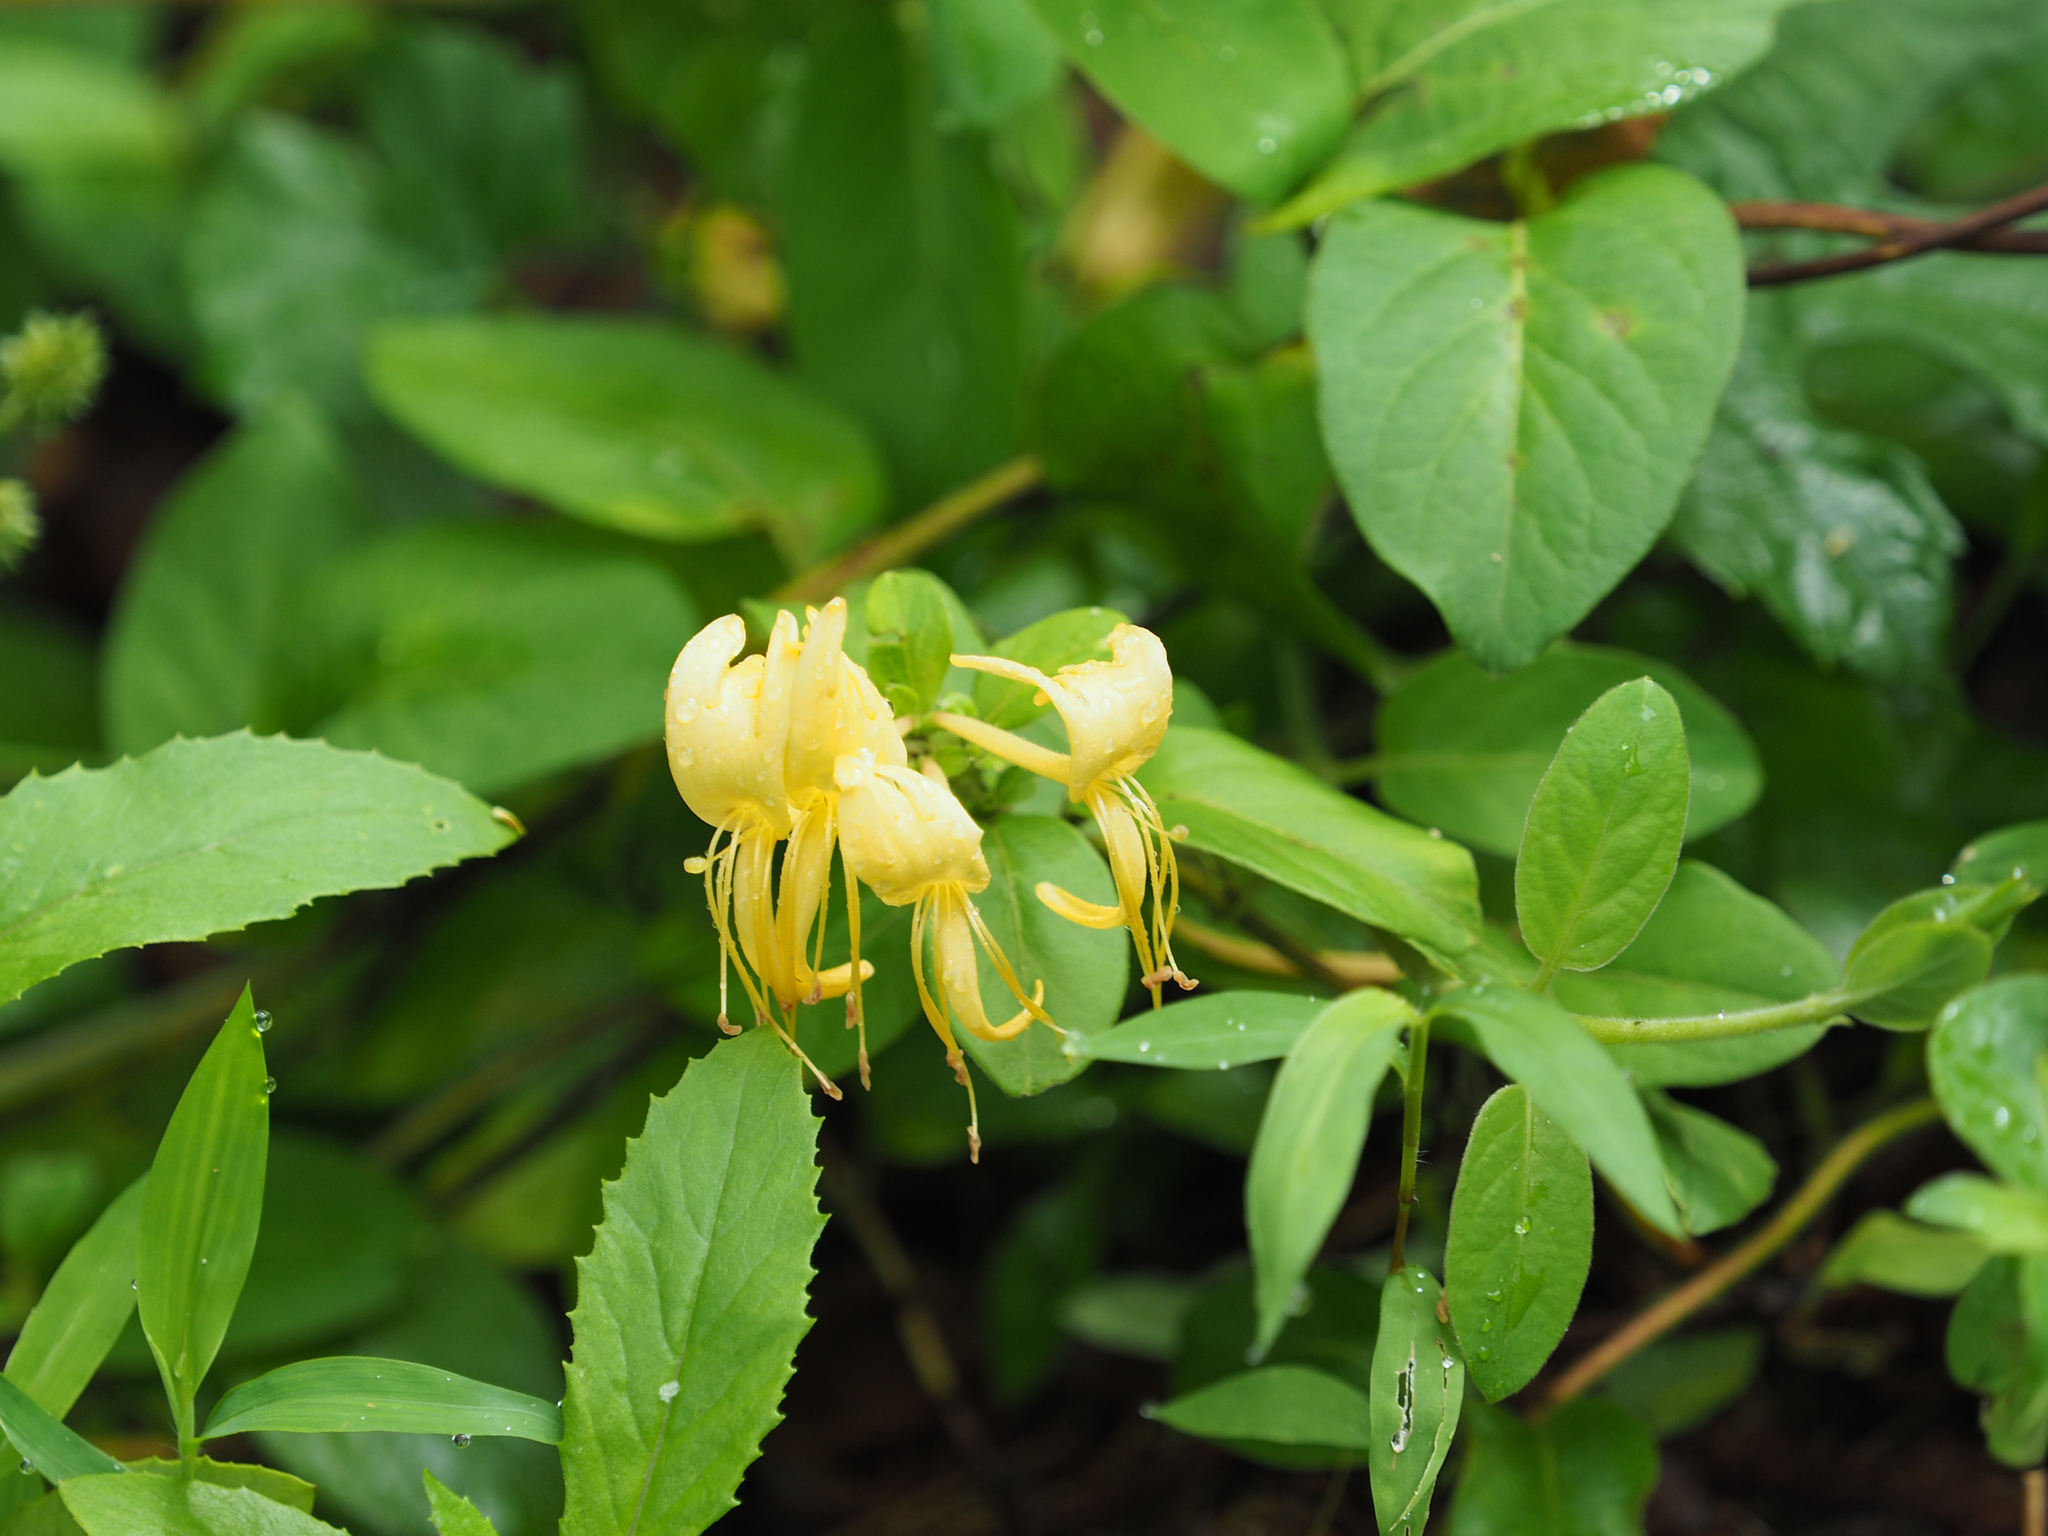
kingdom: Plantae
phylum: Tracheophyta
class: Magnoliopsida
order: Dipsacales
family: Caprifoliaceae
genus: Lonicera
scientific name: Lonicera japonica
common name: Japanese honeysuckle
